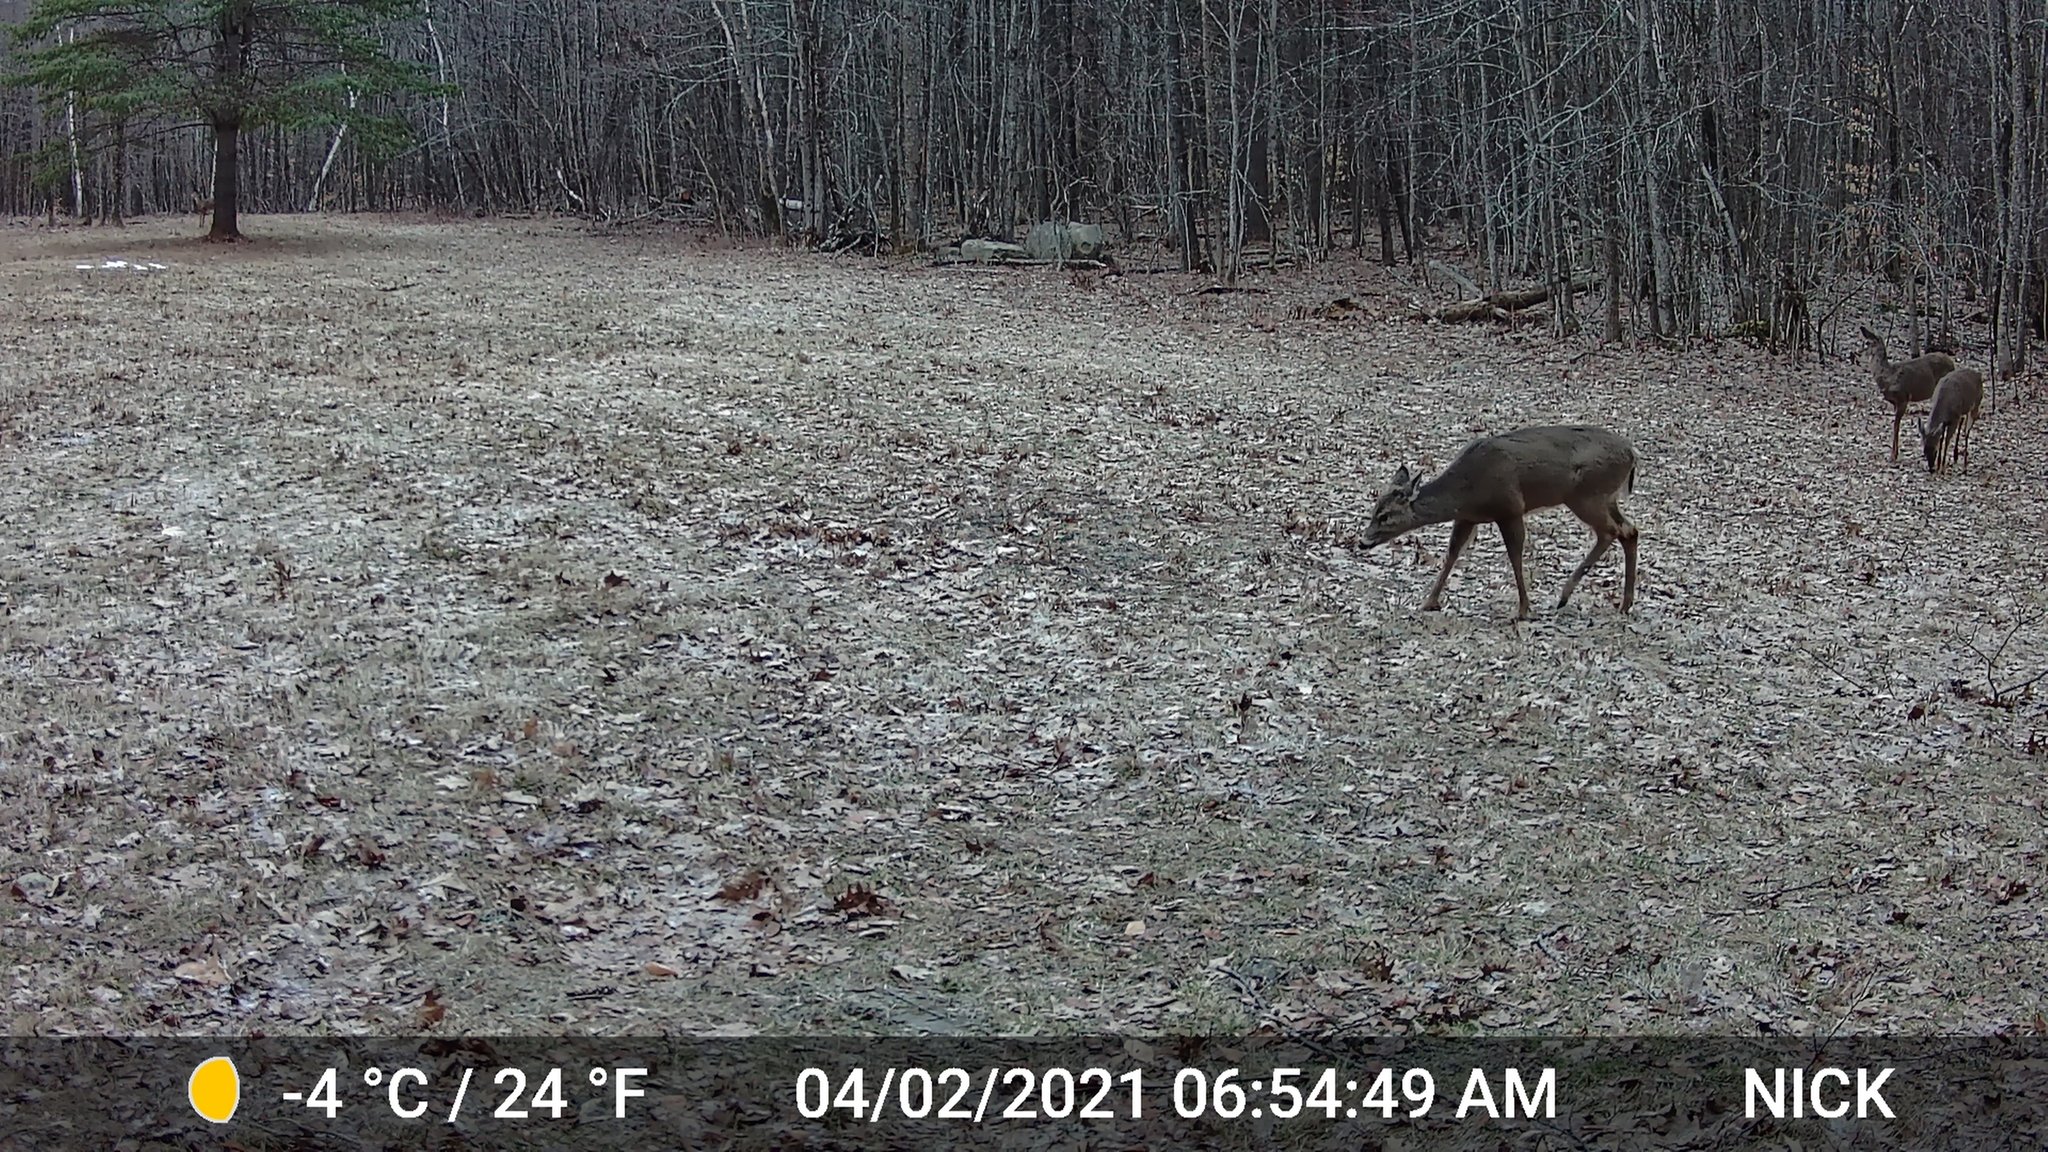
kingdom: Animalia
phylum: Chordata
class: Mammalia
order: Artiodactyla
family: Cervidae
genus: Odocoileus
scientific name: Odocoileus virginianus
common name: White-tailed deer
